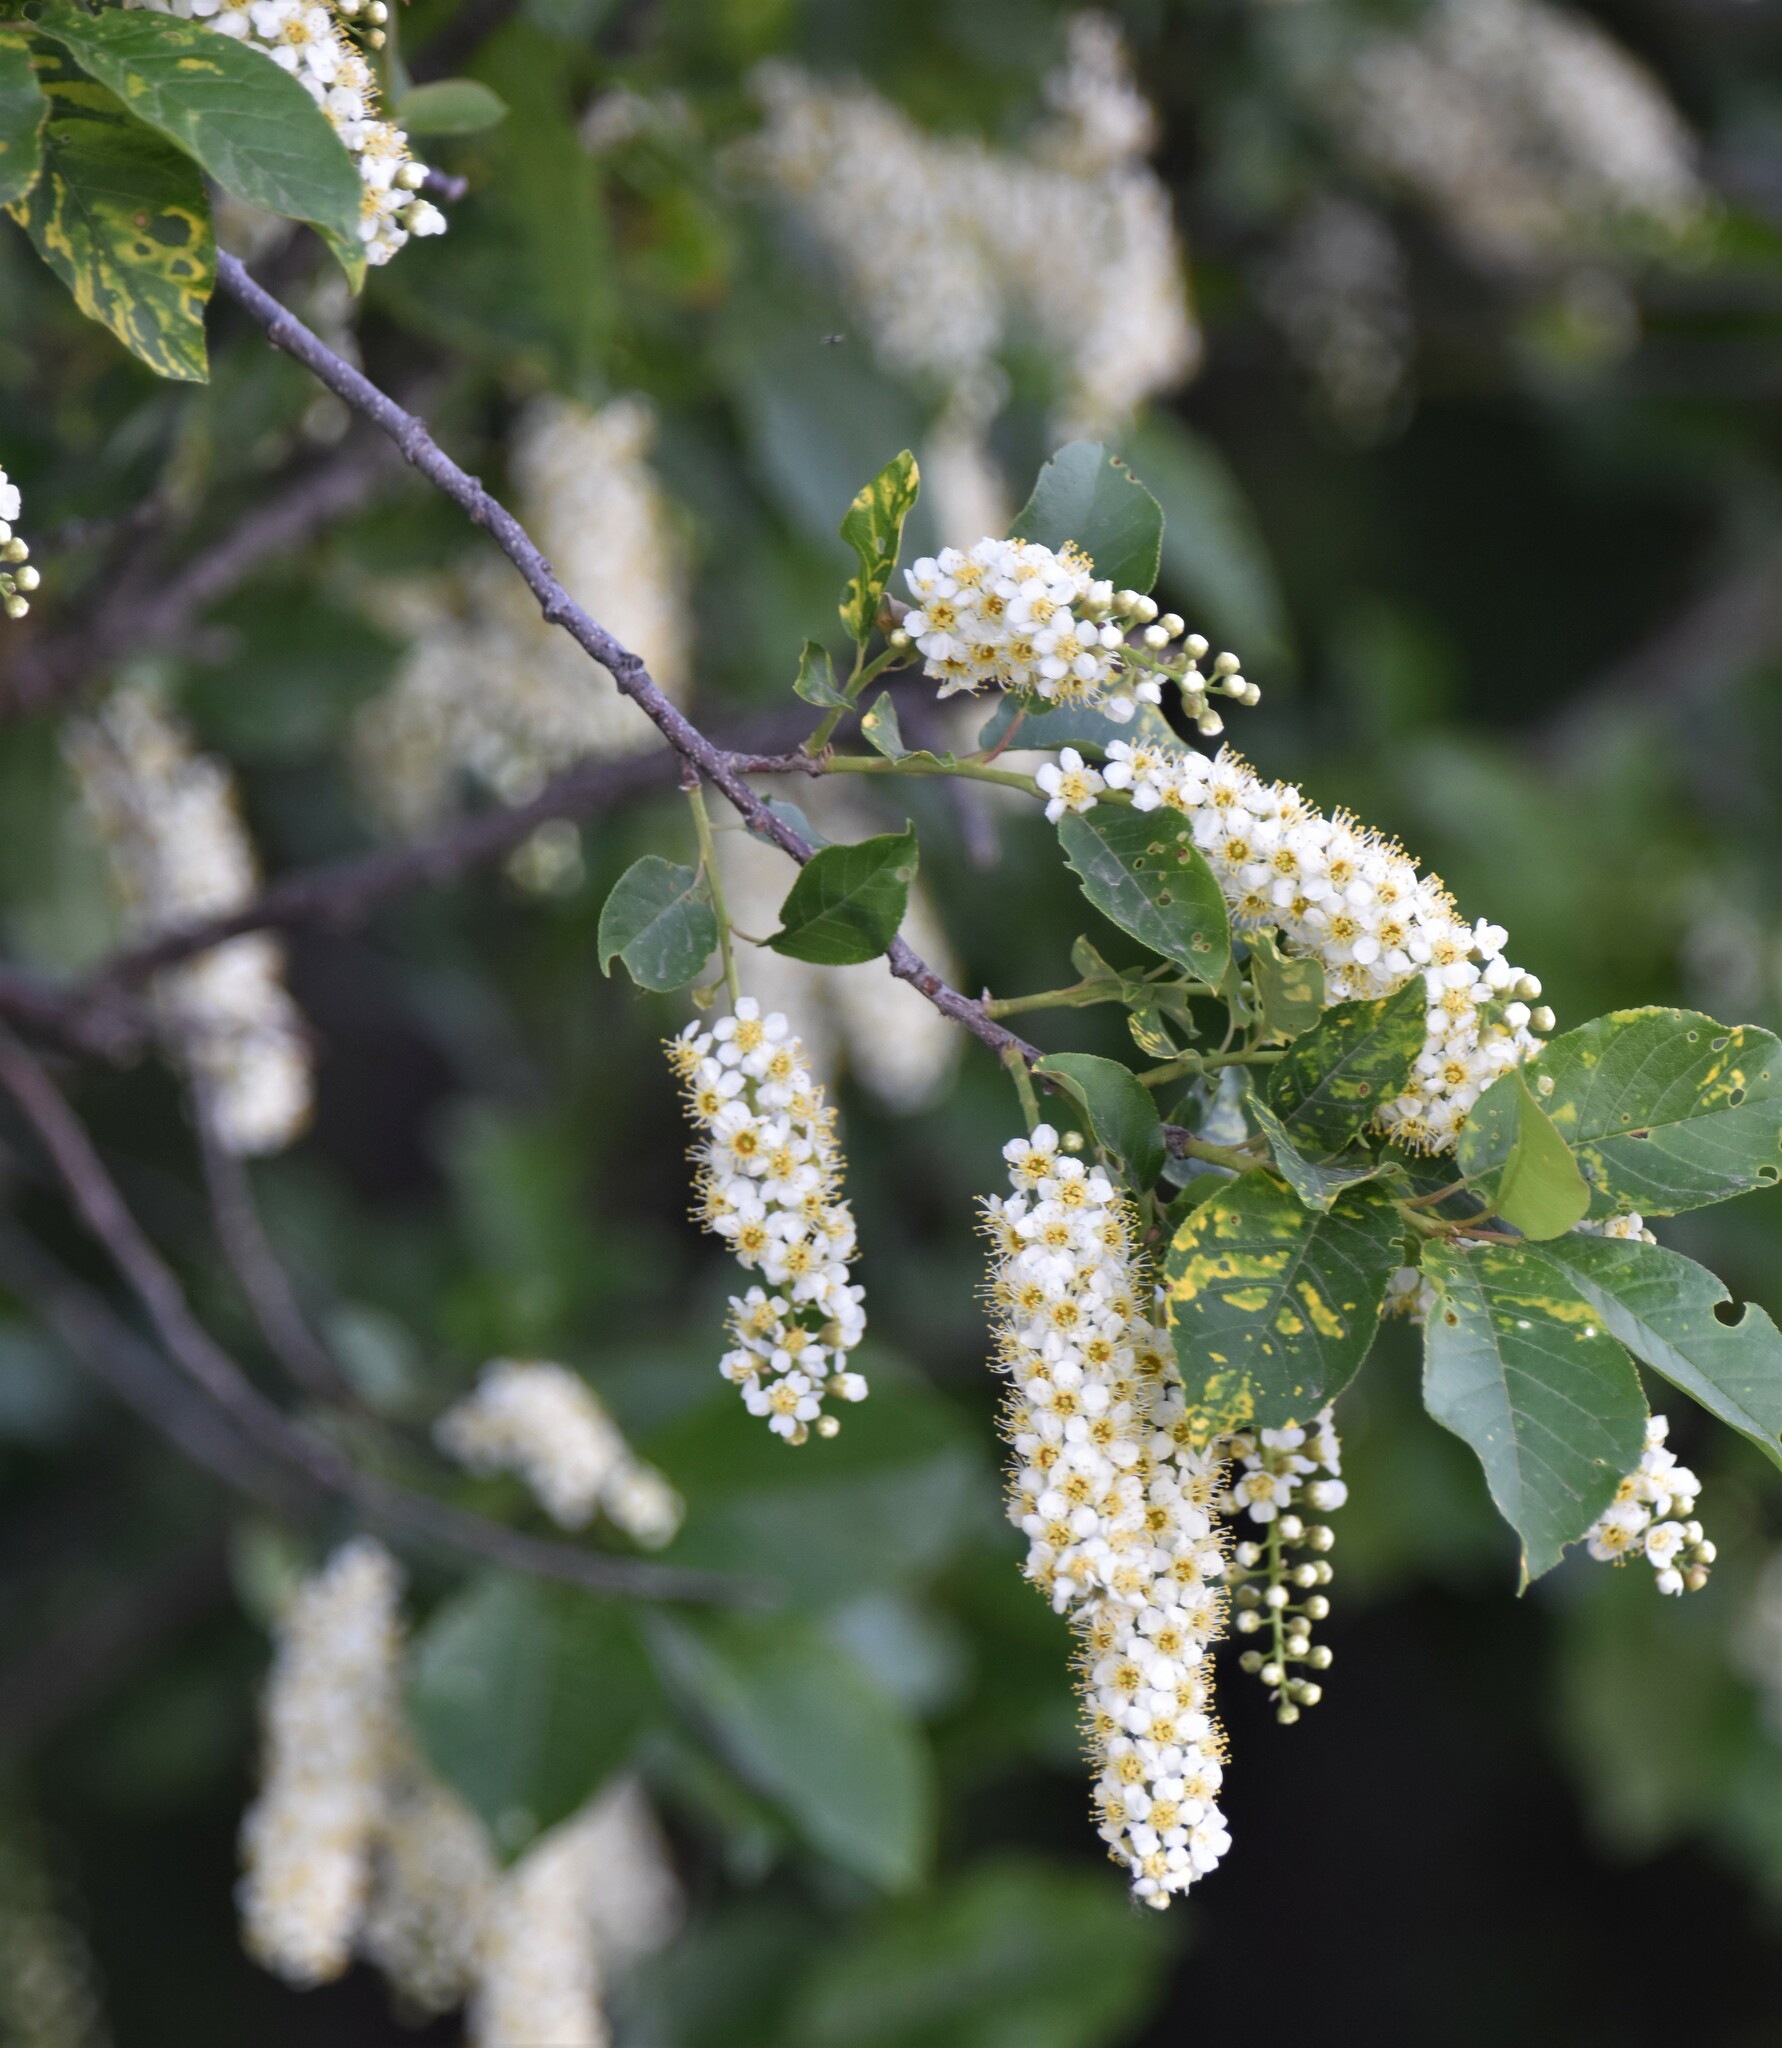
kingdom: Plantae
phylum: Tracheophyta
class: Magnoliopsida
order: Rosales
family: Rosaceae
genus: Prunus
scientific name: Prunus virginiana
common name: Chokecherry
